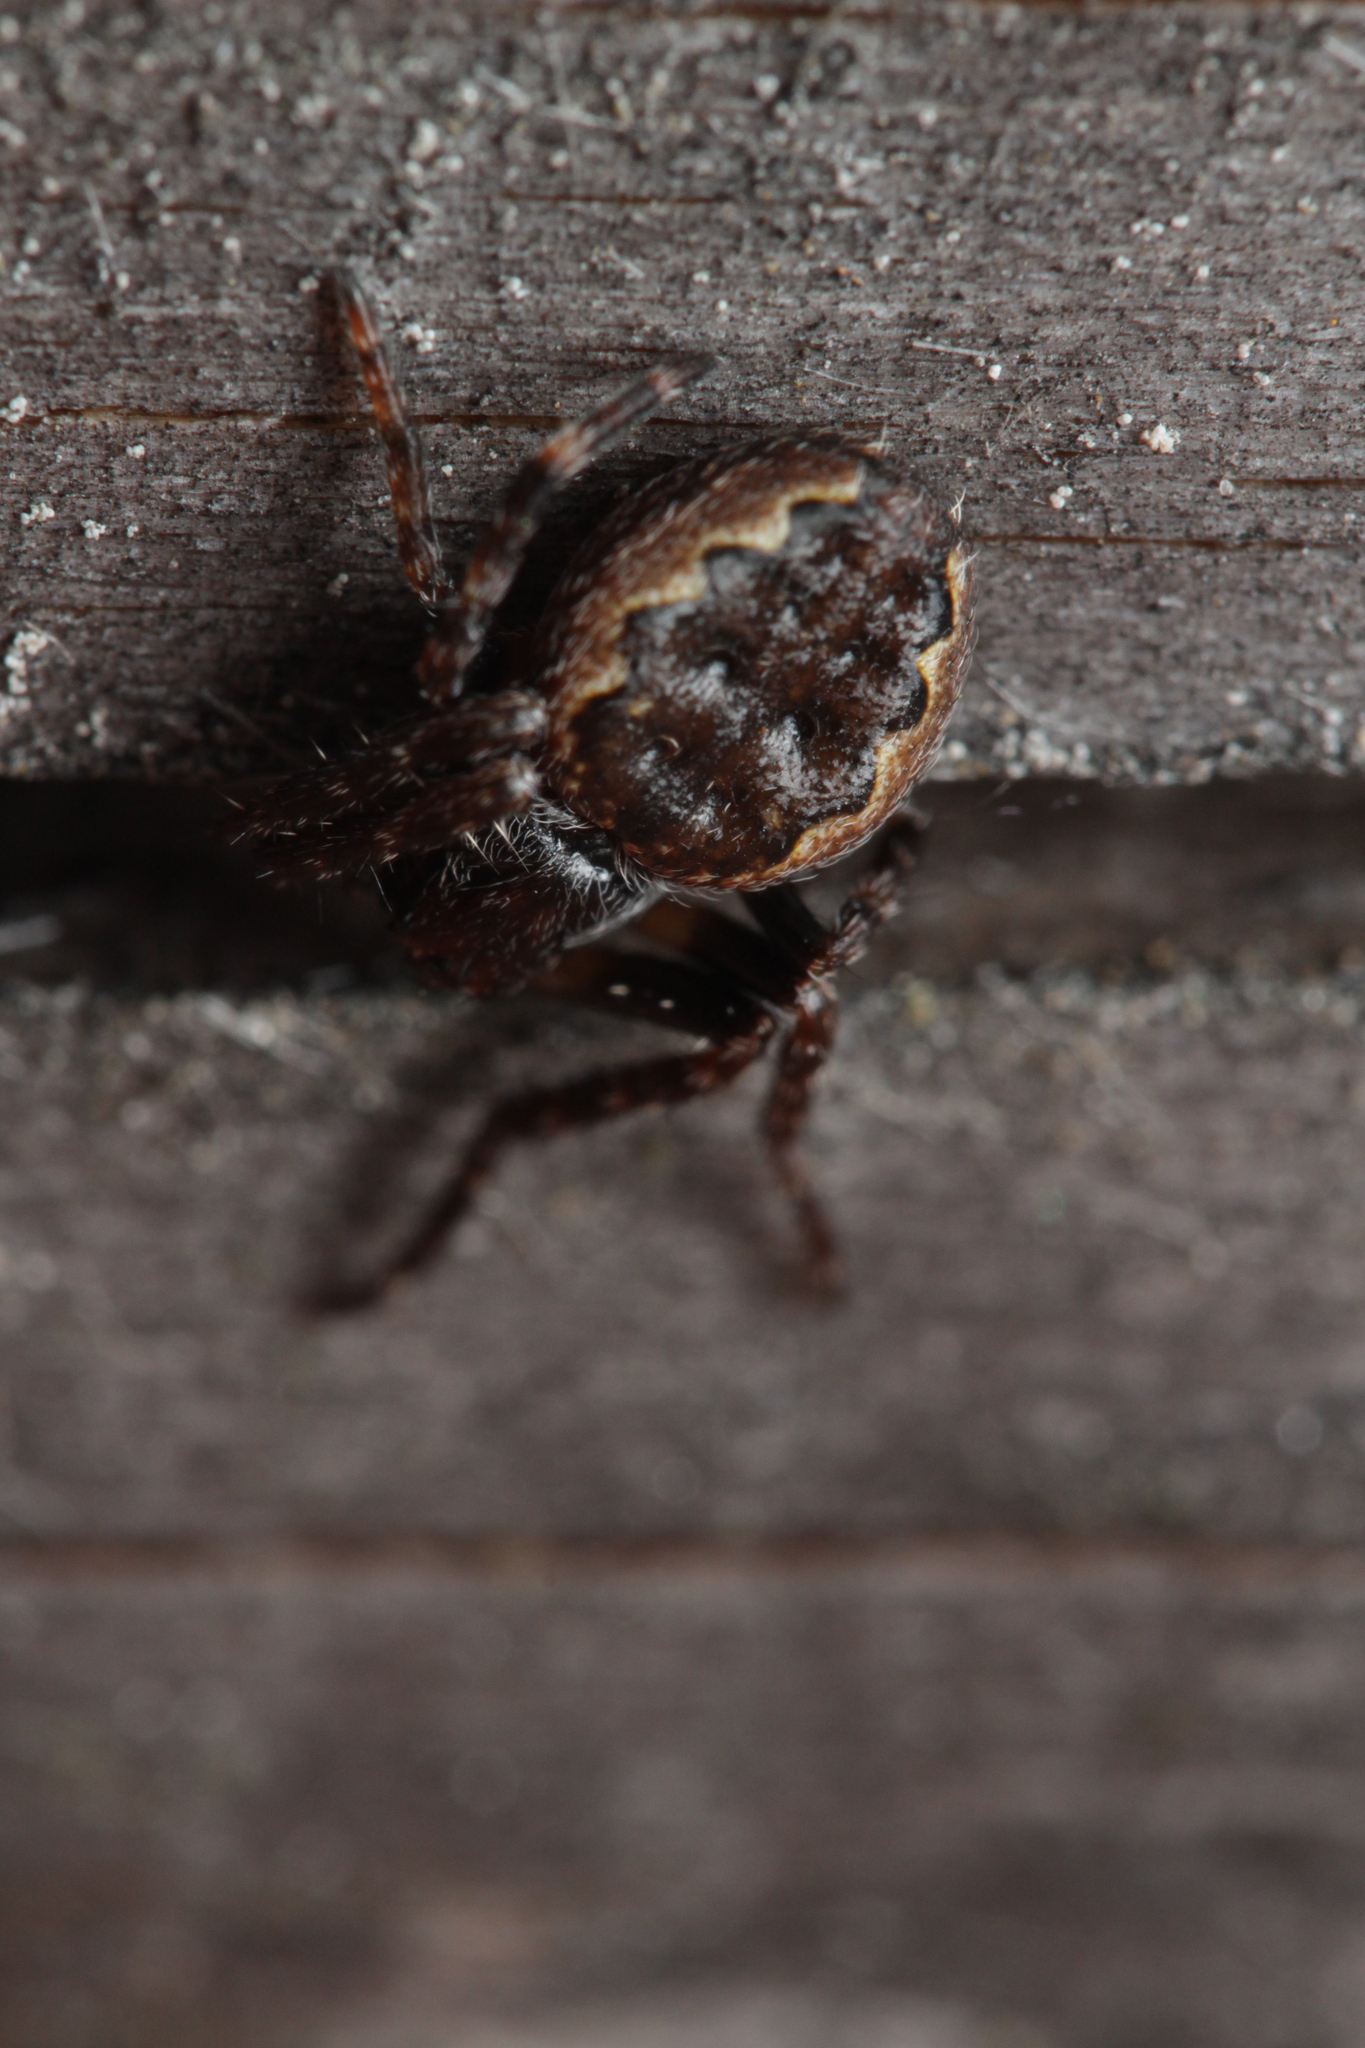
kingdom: Animalia
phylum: Arthropoda
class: Arachnida
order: Araneae
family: Araneidae
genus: Nuctenea
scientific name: Nuctenea umbratica
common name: Toad spider
